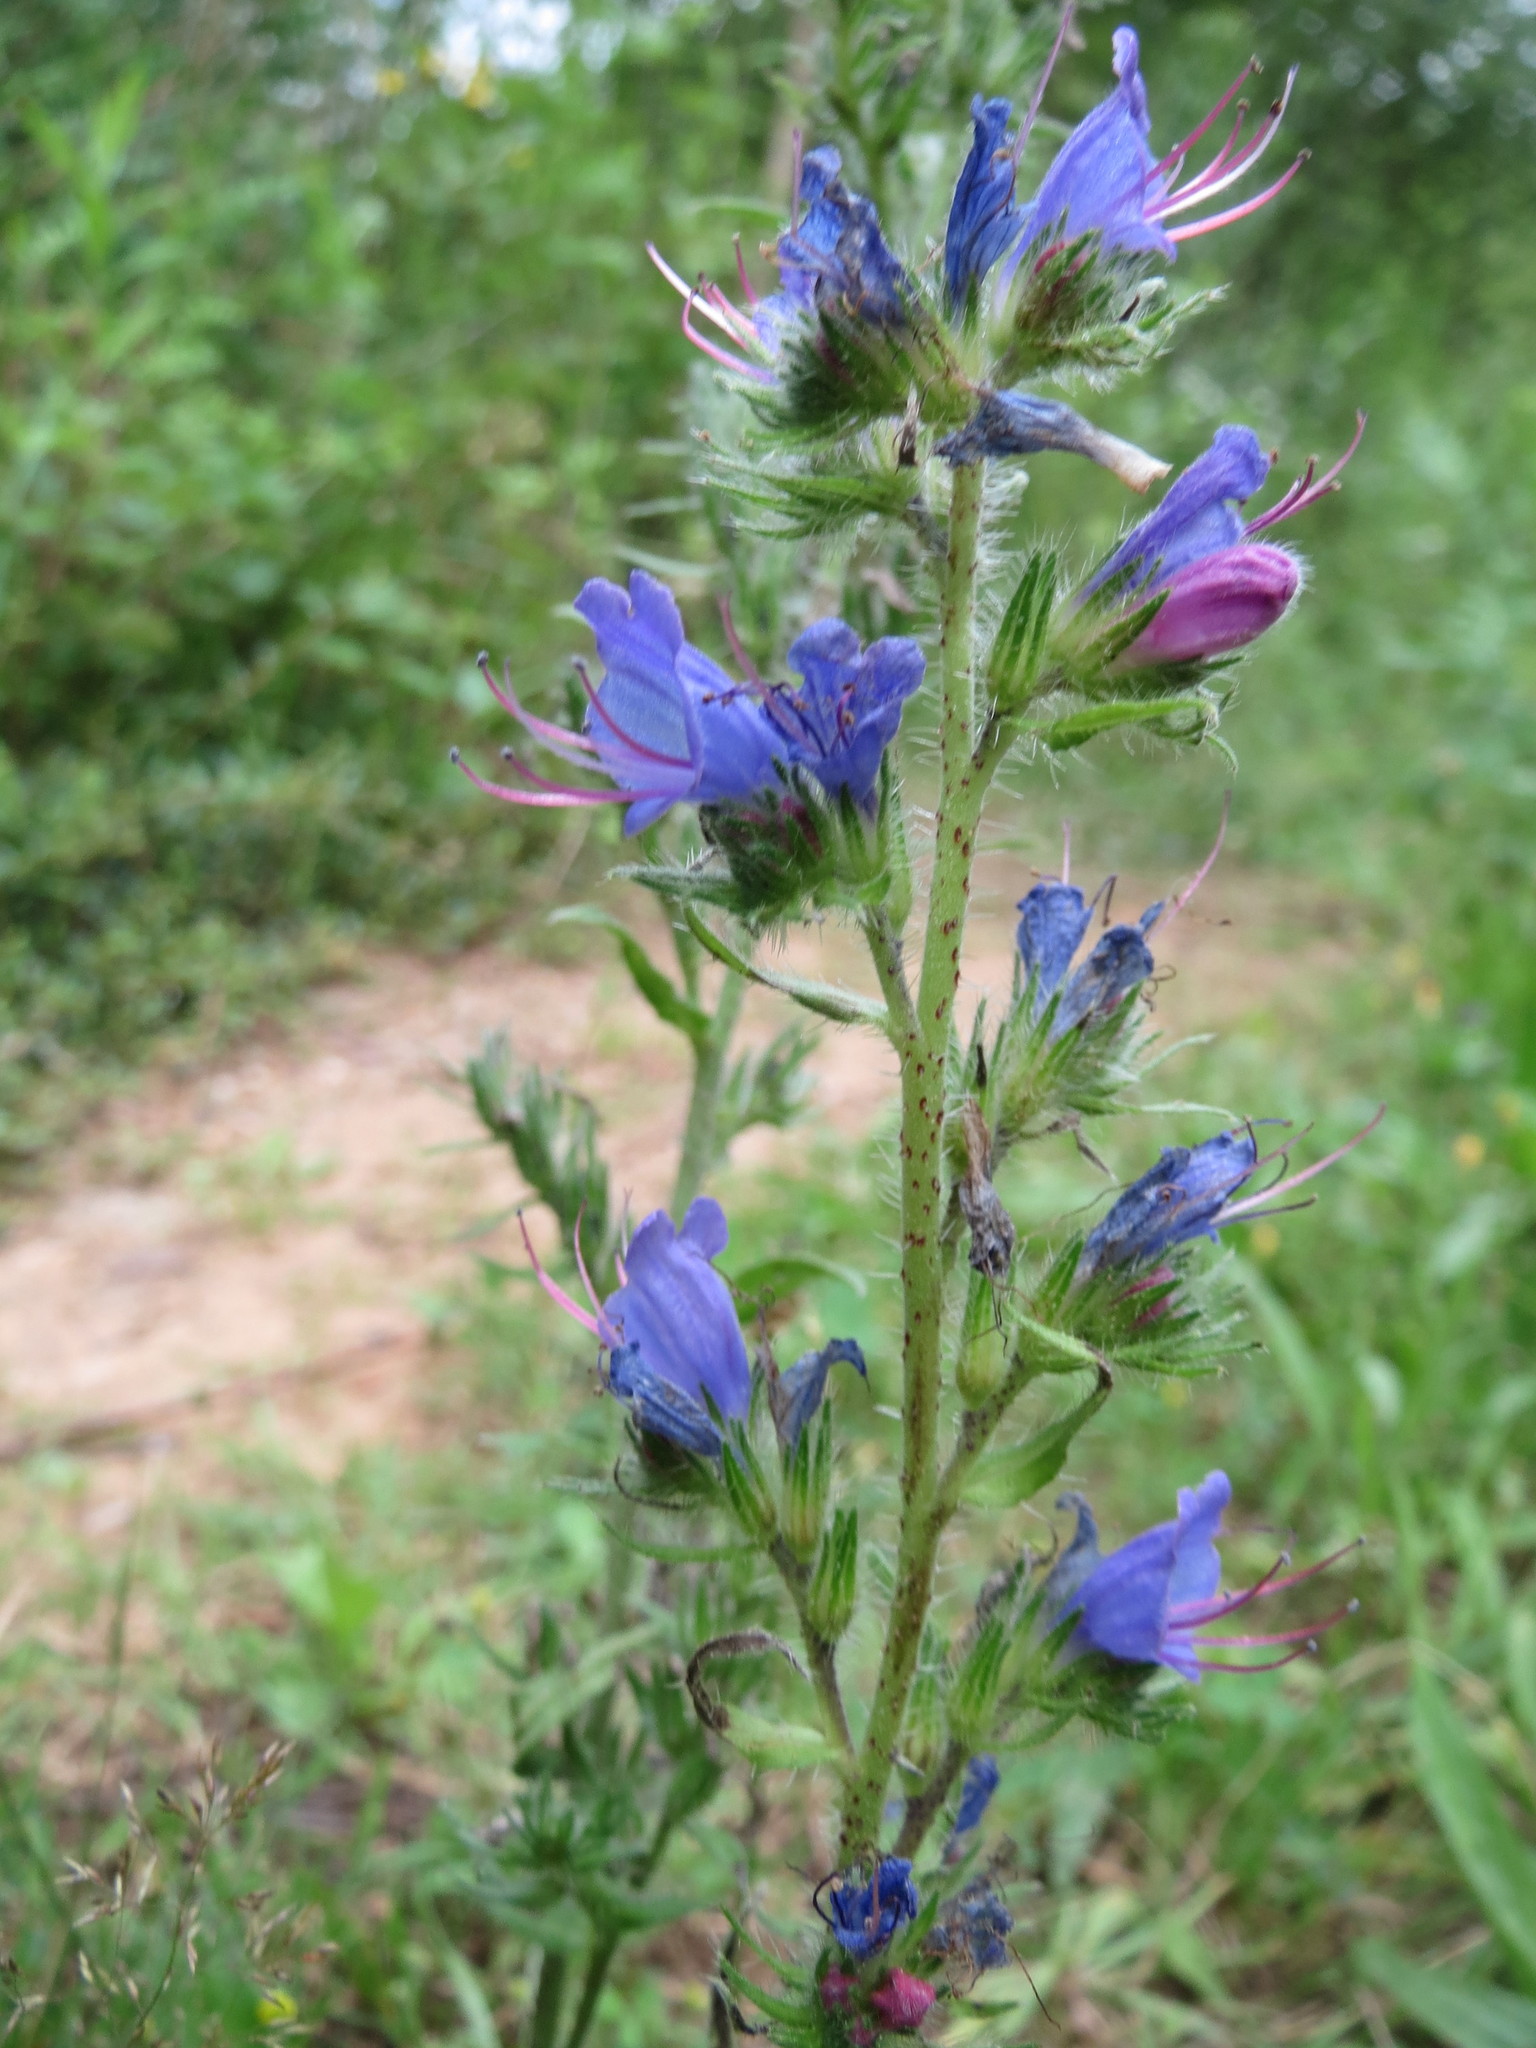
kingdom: Plantae
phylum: Tracheophyta
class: Magnoliopsida
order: Boraginales
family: Boraginaceae
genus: Echium
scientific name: Echium vulgare
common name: Common viper's bugloss
